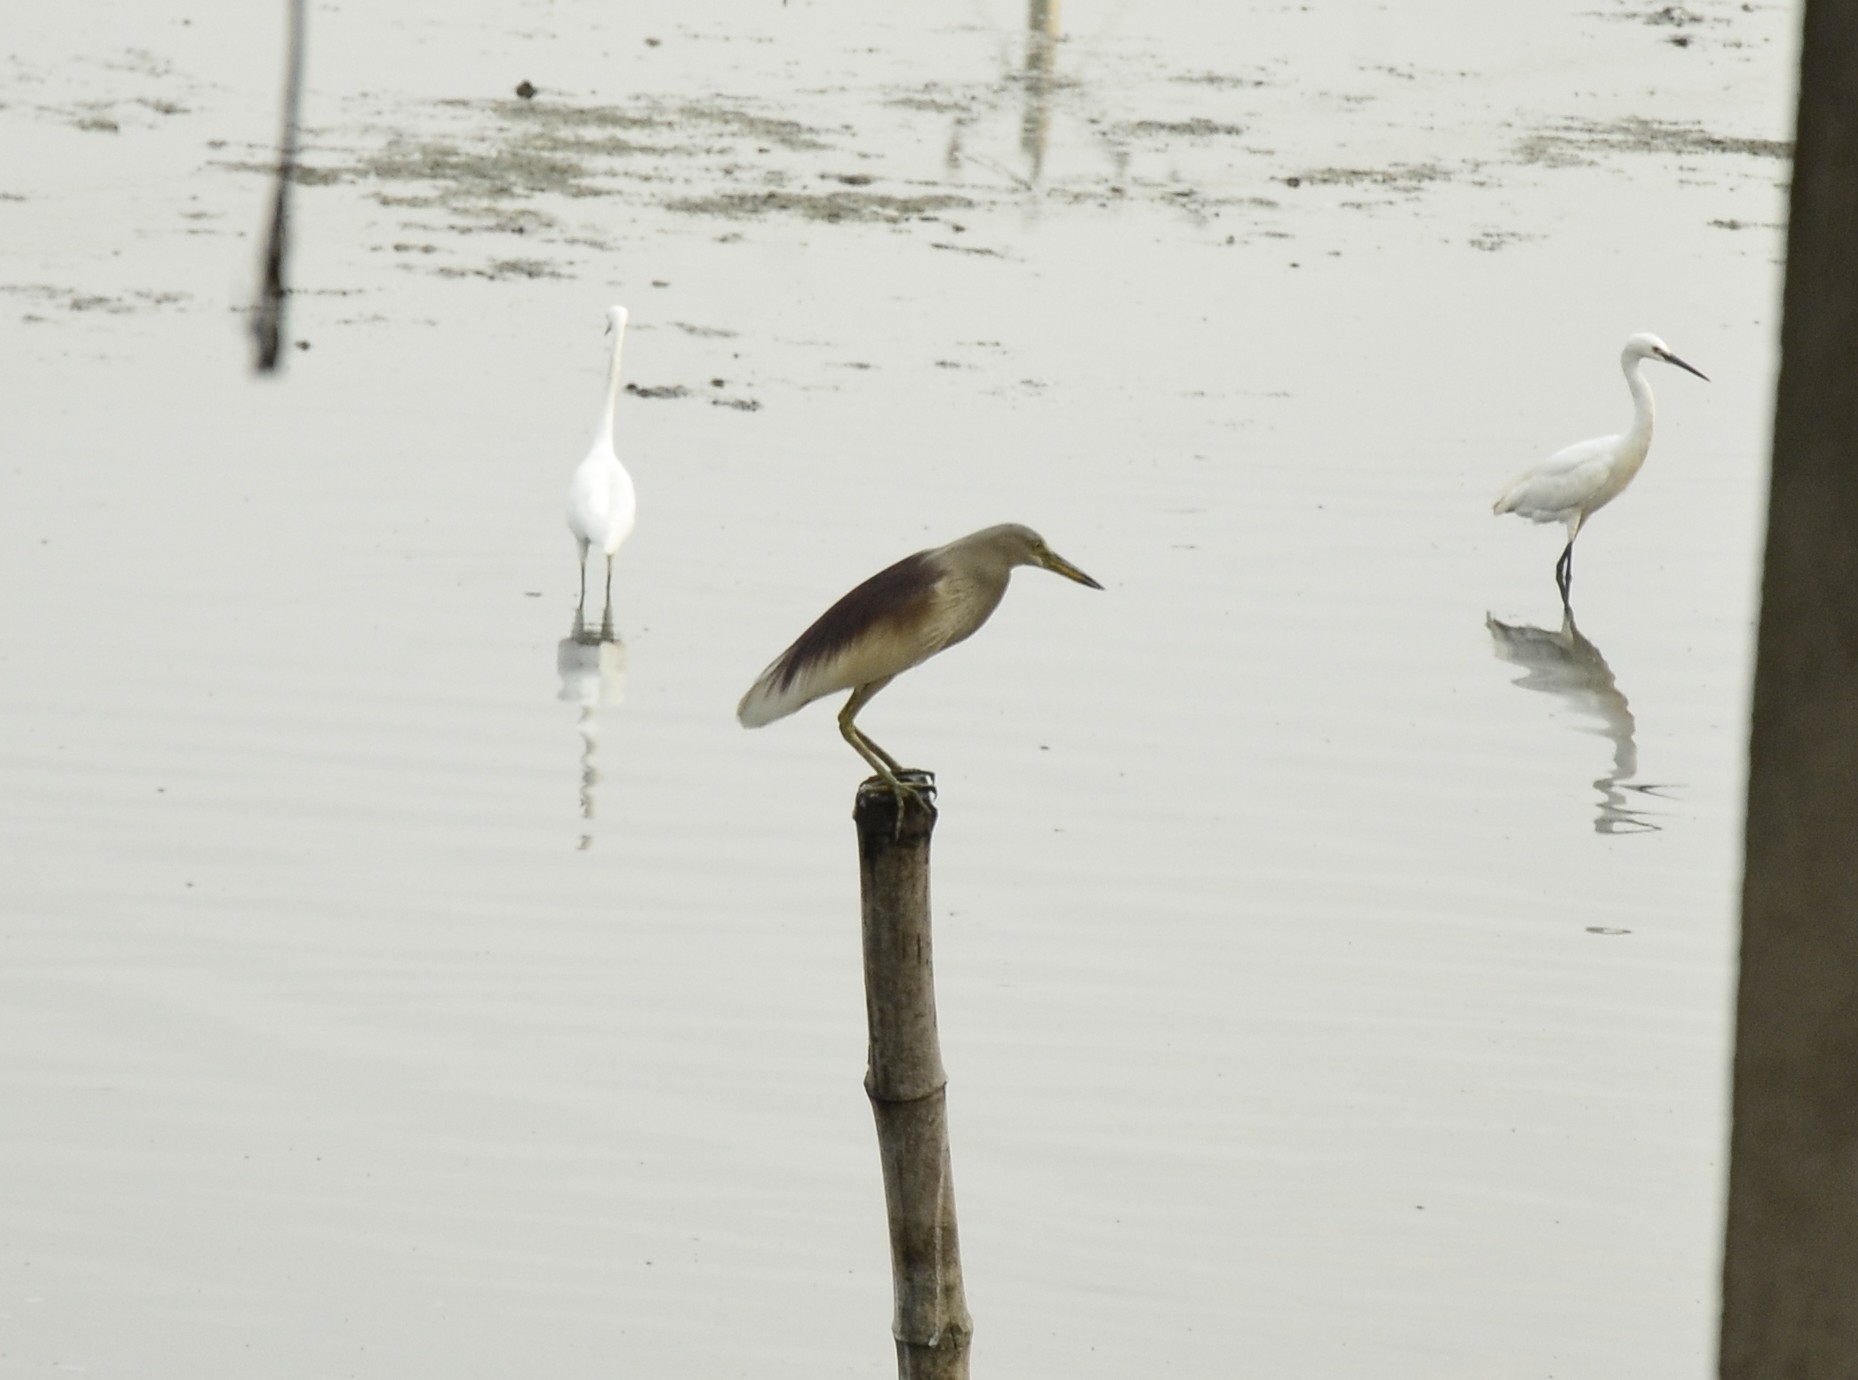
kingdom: Animalia
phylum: Chordata
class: Aves
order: Pelecaniformes
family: Ardeidae
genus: Ardeola
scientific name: Ardeola grayii
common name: Indian pond heron
